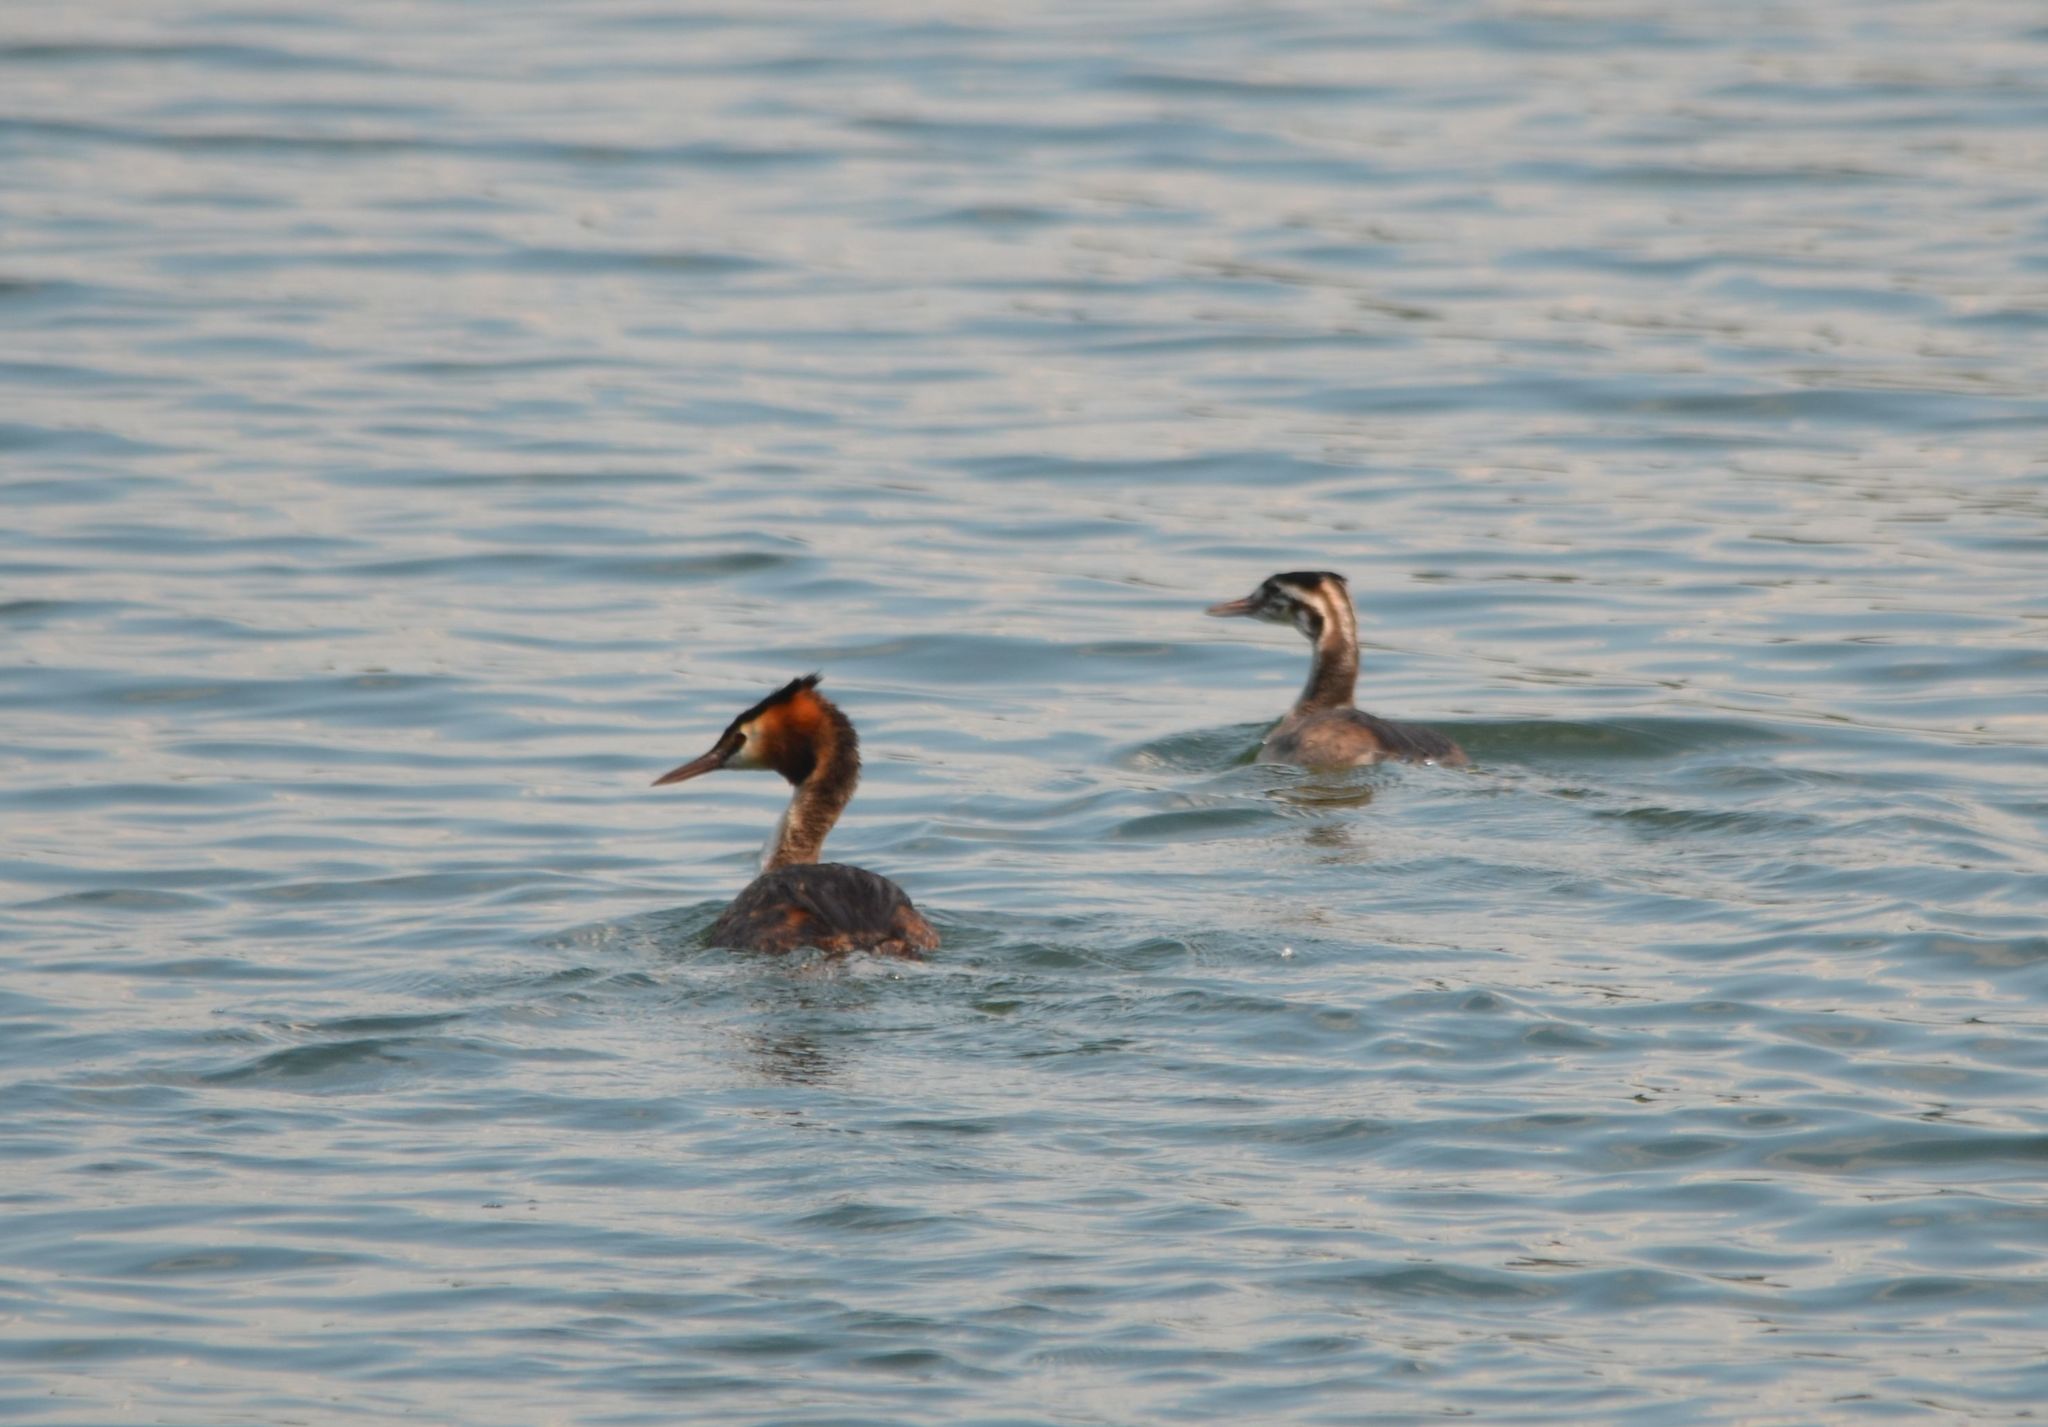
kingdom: Animalia
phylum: Chordata
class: Aves
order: Podicipediformes
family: Podicipedidae
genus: Podiceps
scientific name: Podiceps cristatus
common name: Great crested grebe
